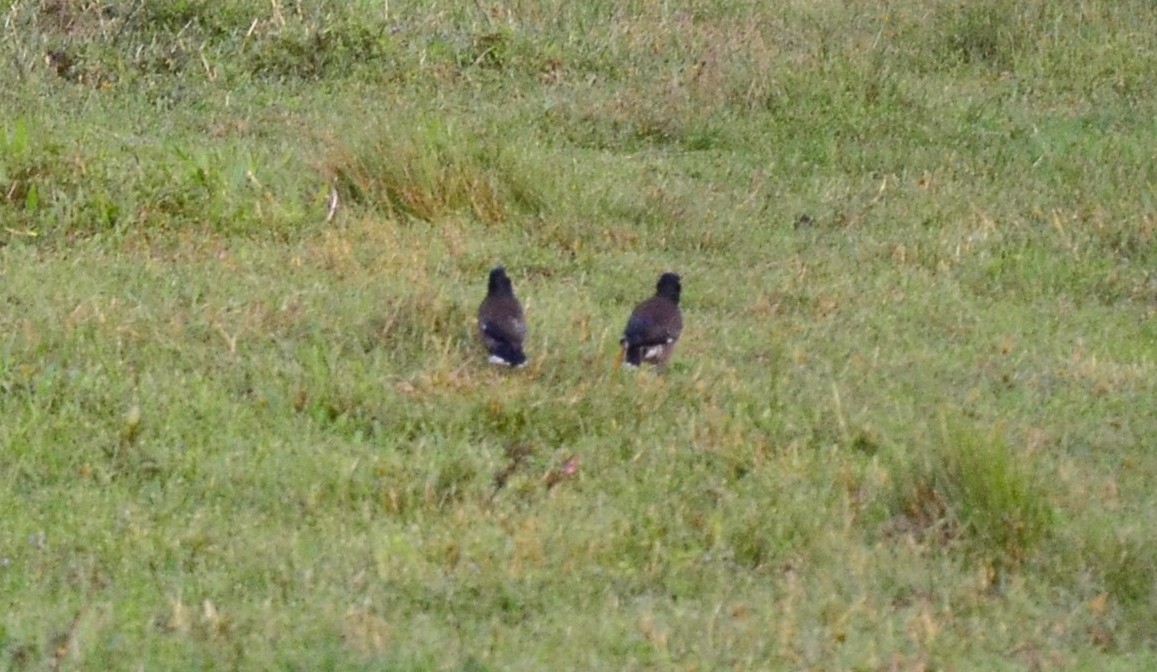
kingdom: Animalia
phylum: Chordata
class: Aves
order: Passeriformes
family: Sturnidae
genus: Acridotheres
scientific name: Acridotheres tristis
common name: Common myna
